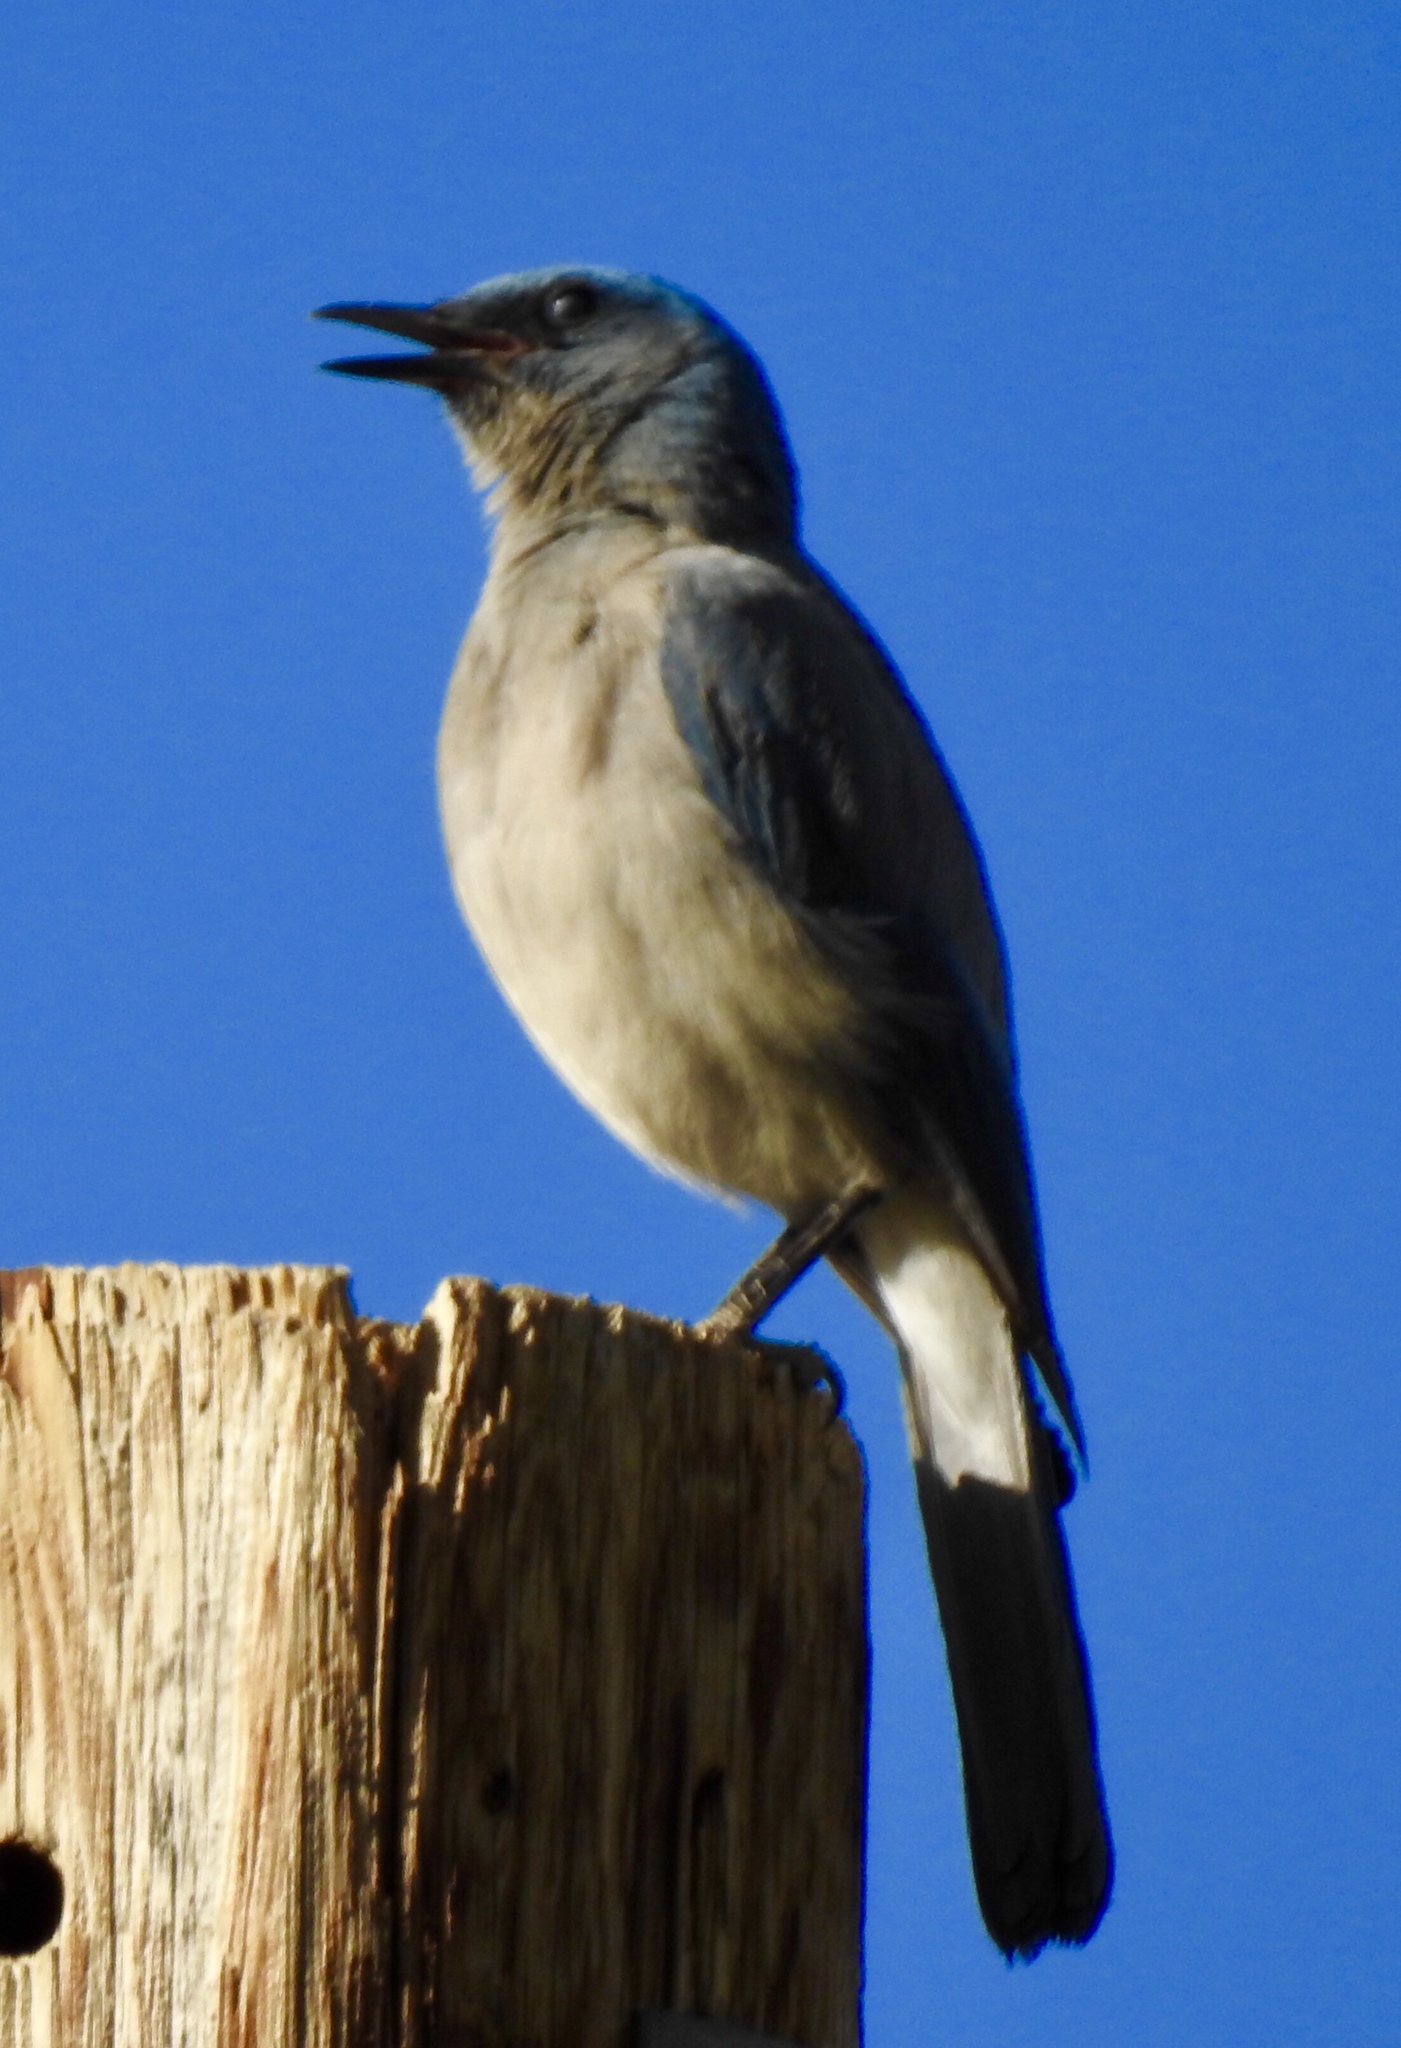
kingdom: Animalia
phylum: Chordata
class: Aves
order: Passeriformes
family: Corvidae
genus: Aphelocoma
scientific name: Aphelocoma wollweberi
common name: Mexican jay
